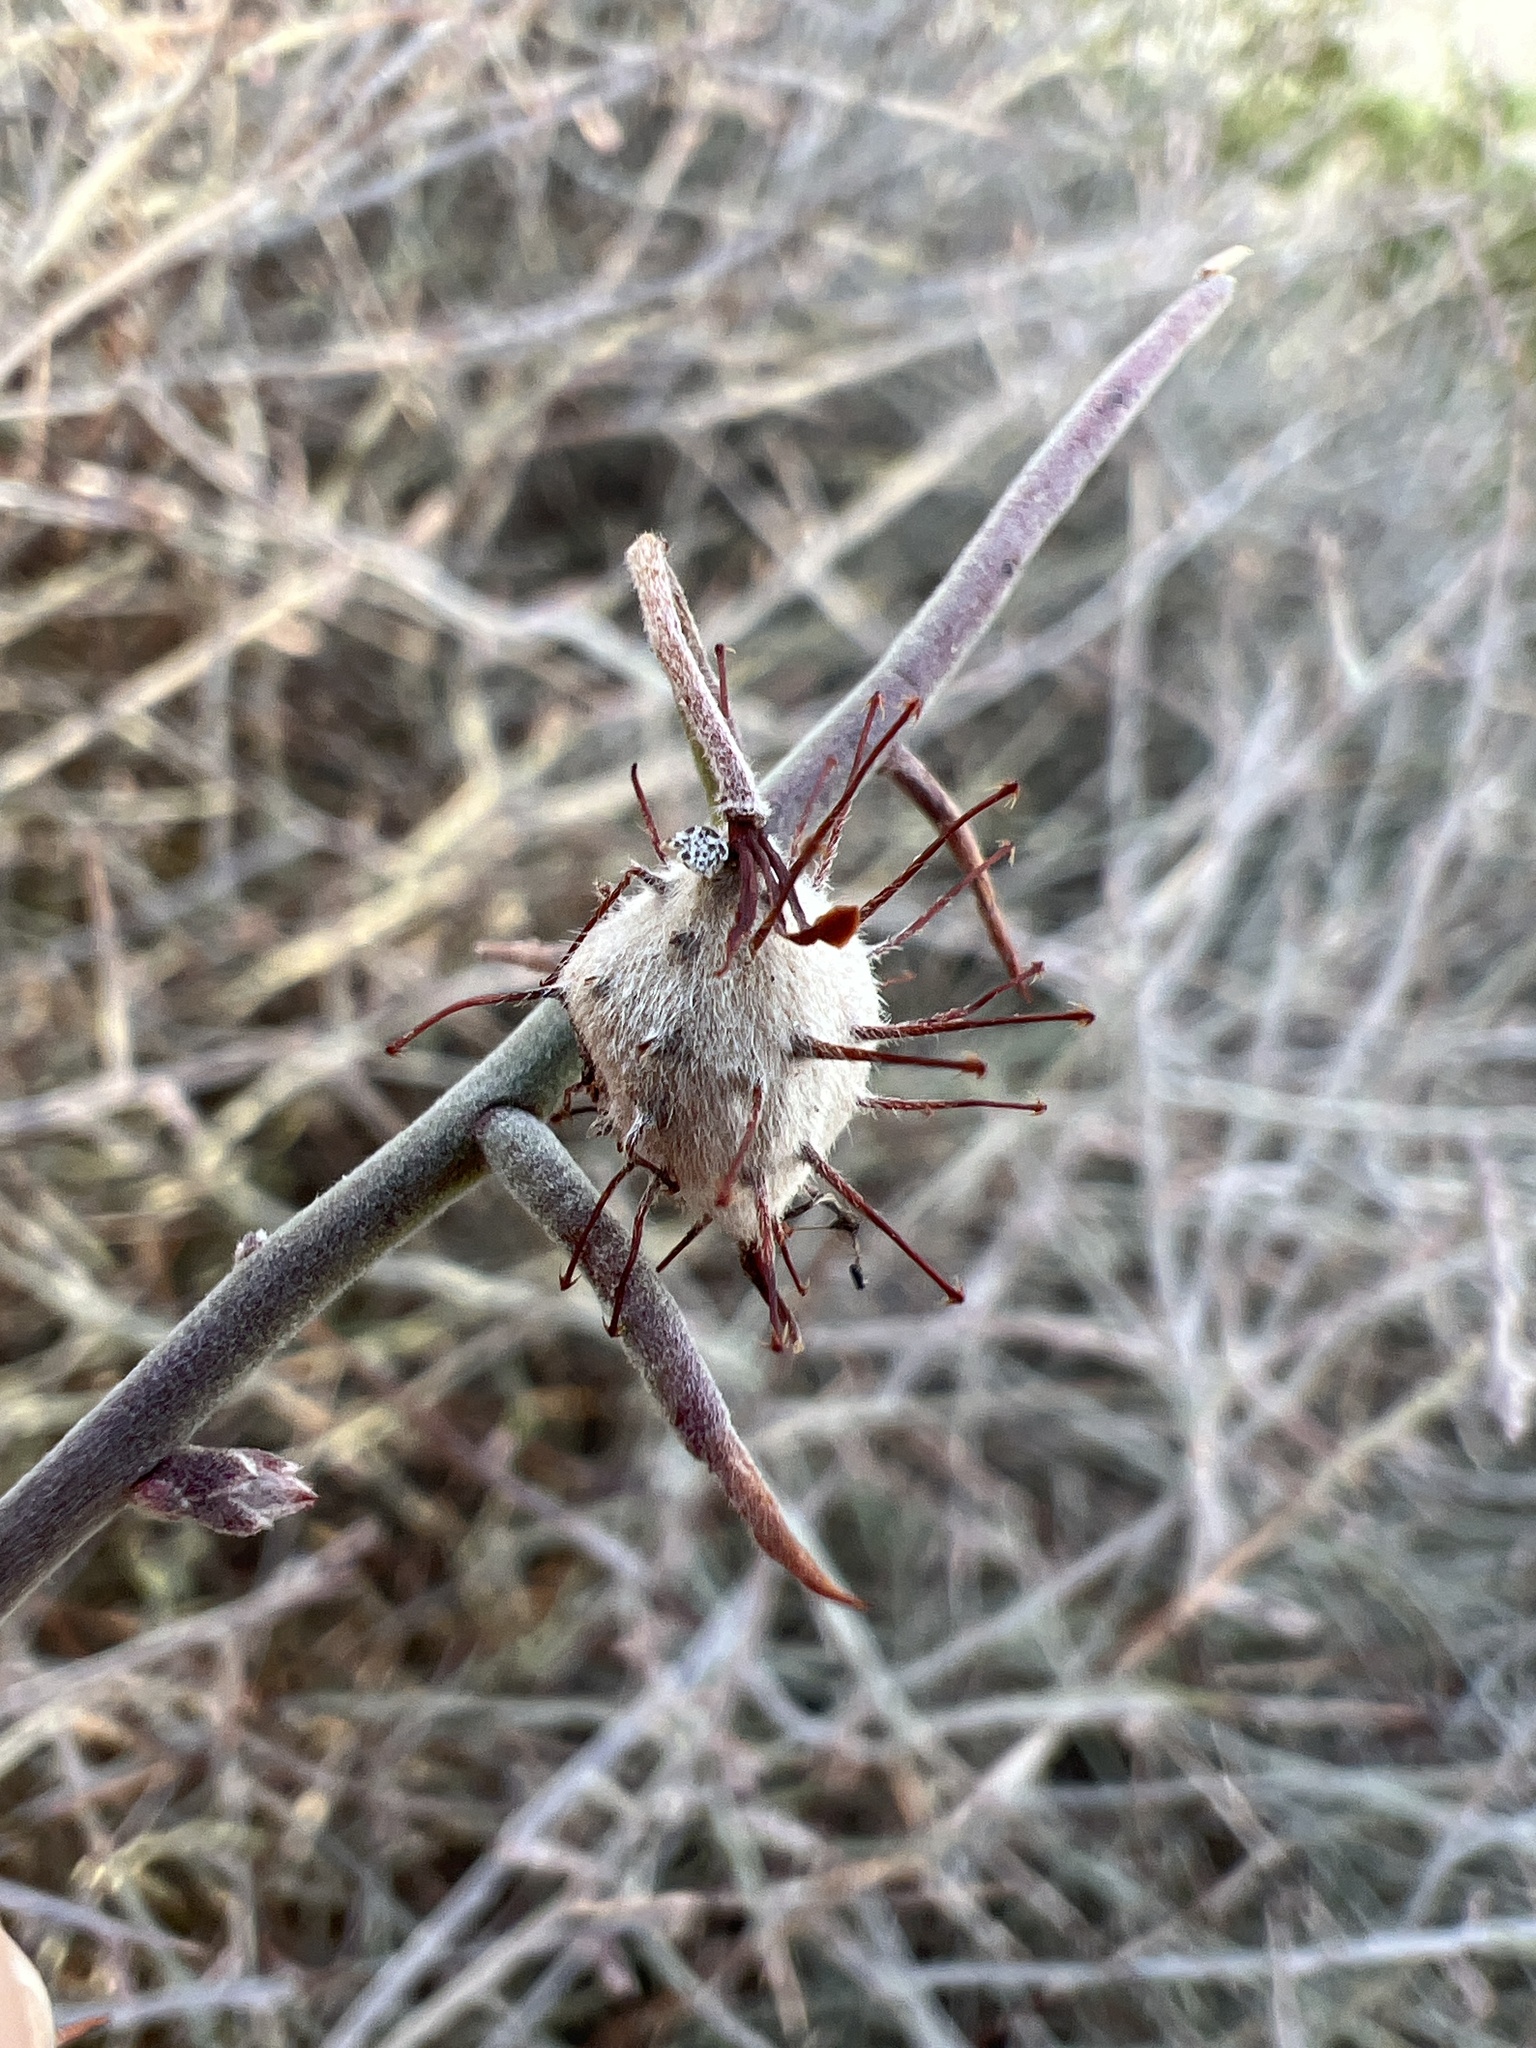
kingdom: Plantae
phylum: Tracheophyta
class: Magnoliopsida
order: Zygophyllales
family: Krameriaceae
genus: Krameria
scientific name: Krameria bicolor
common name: White ratany
